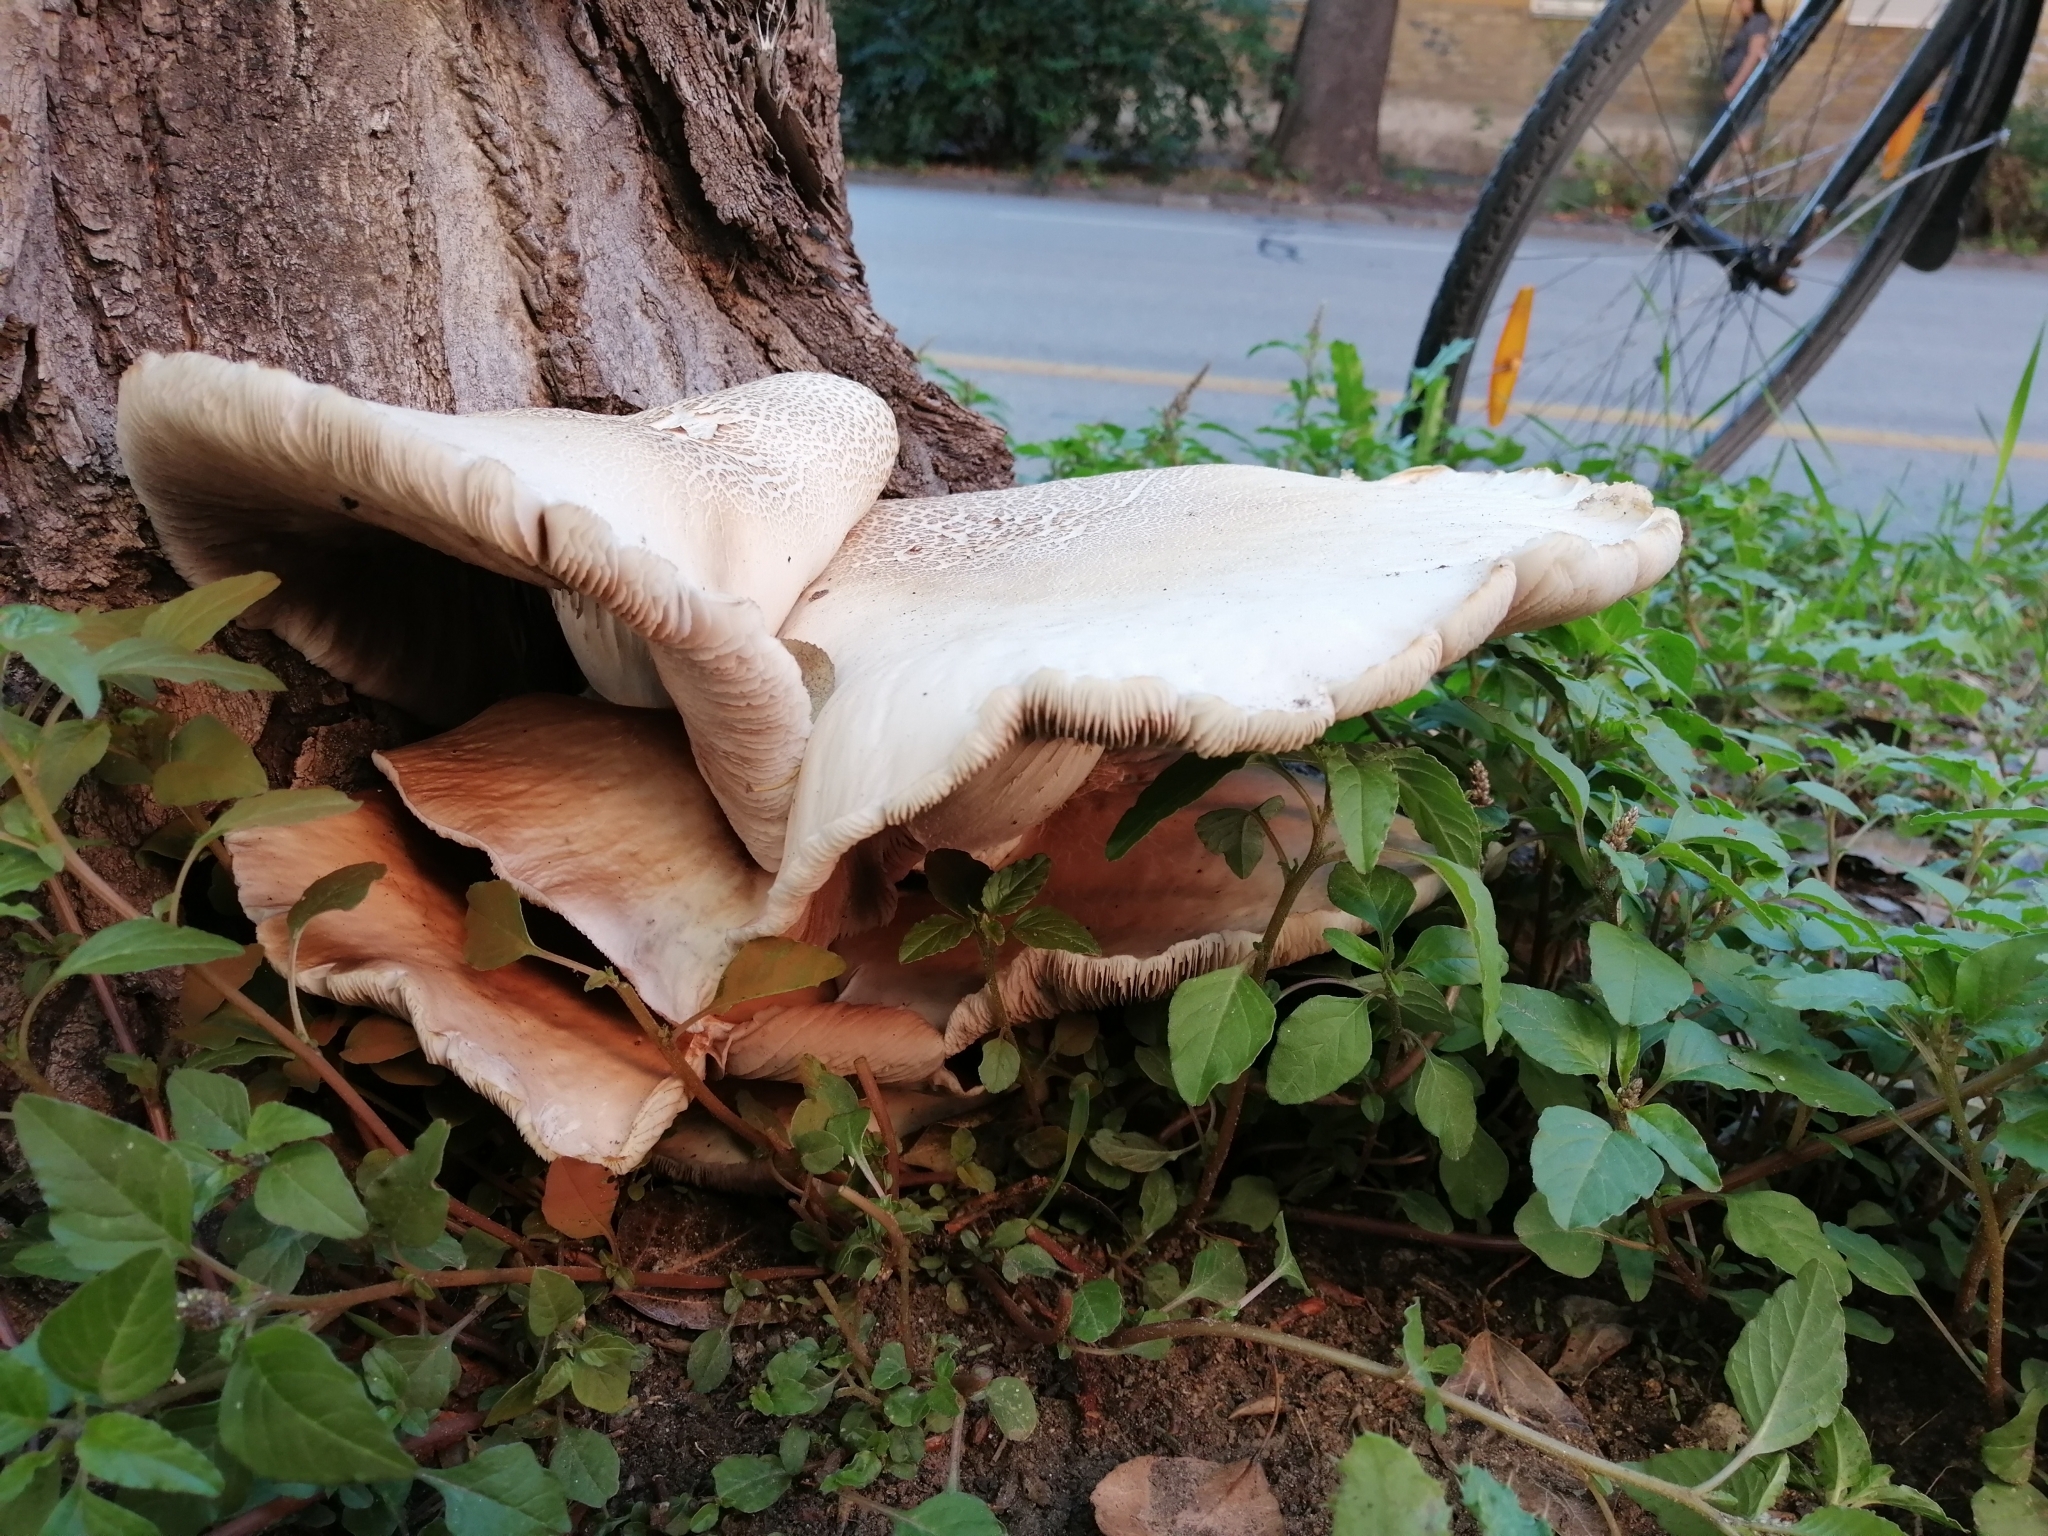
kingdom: Fungi
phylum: Basidiomycota
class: Agaricomycetes
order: Agaricales
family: Tubariaceae
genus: Cyclocybe
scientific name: Cyclocybe cylindracea
